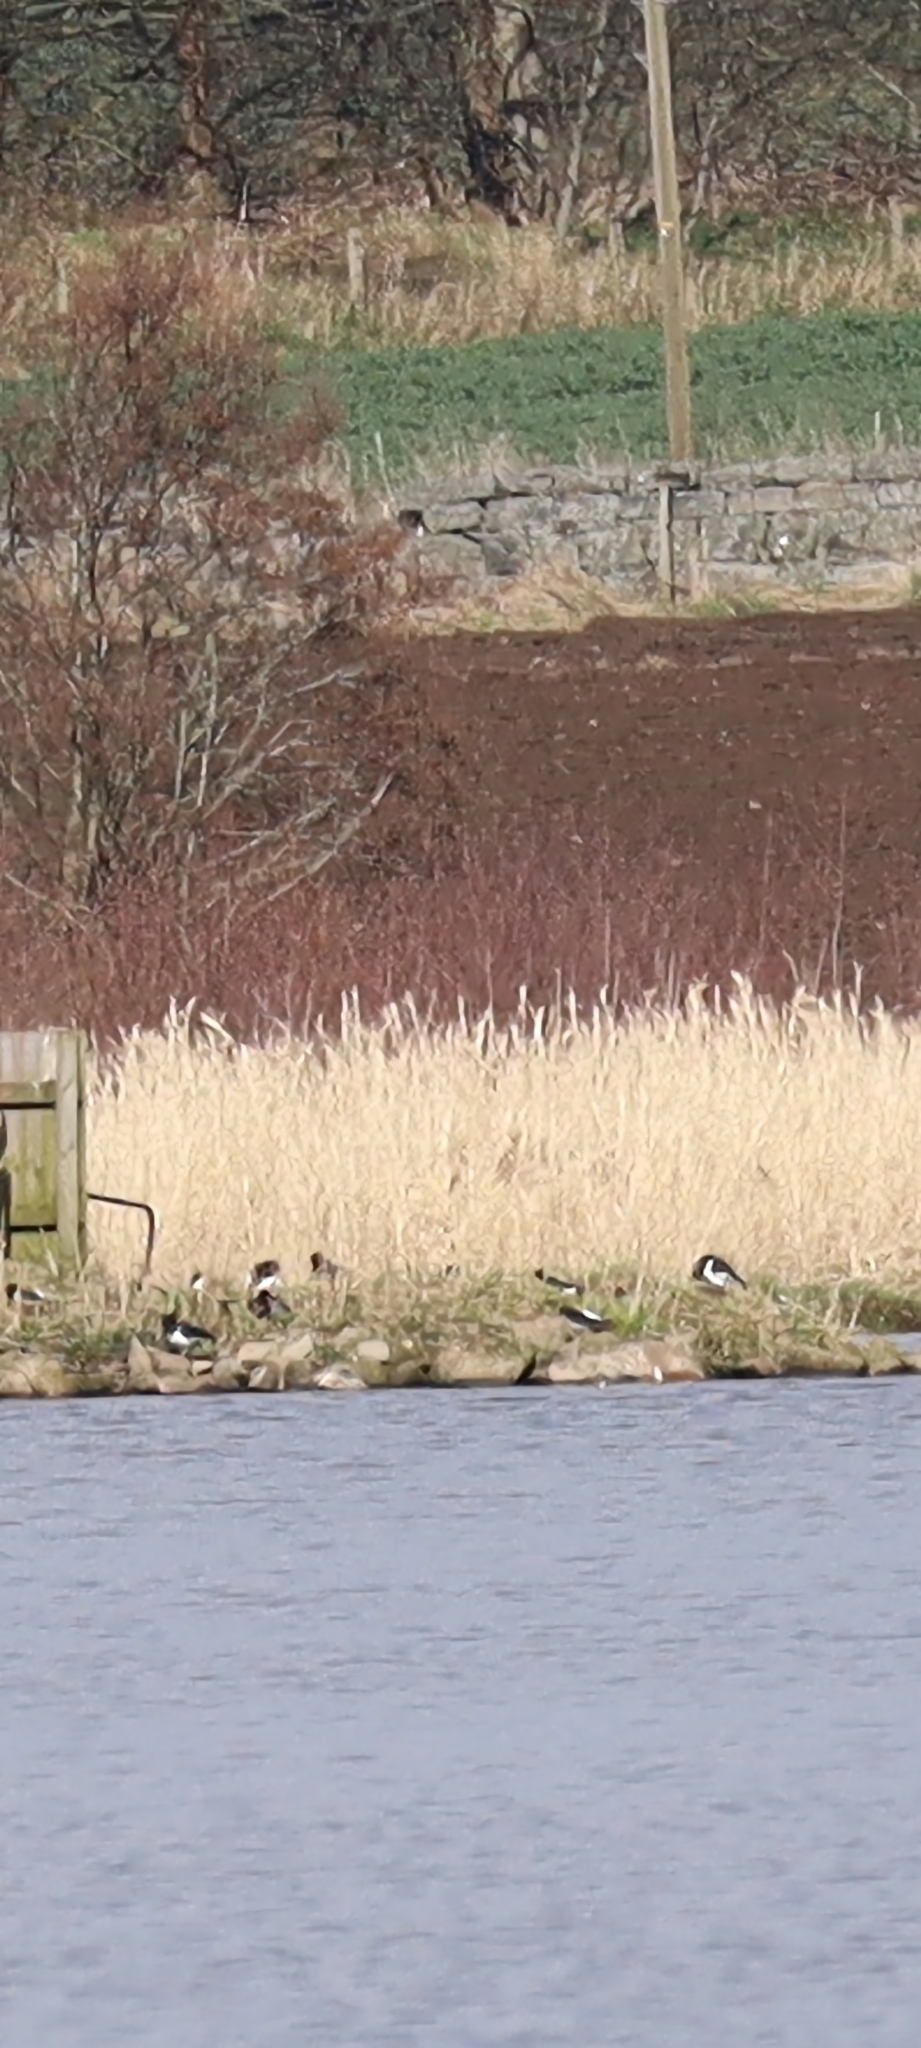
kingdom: Animalia
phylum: Chordata
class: Aves
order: Charadriiformes
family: Haematopodidae
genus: Haematopus
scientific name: Haematopus ostralegus
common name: Eurasian oystercatcher
